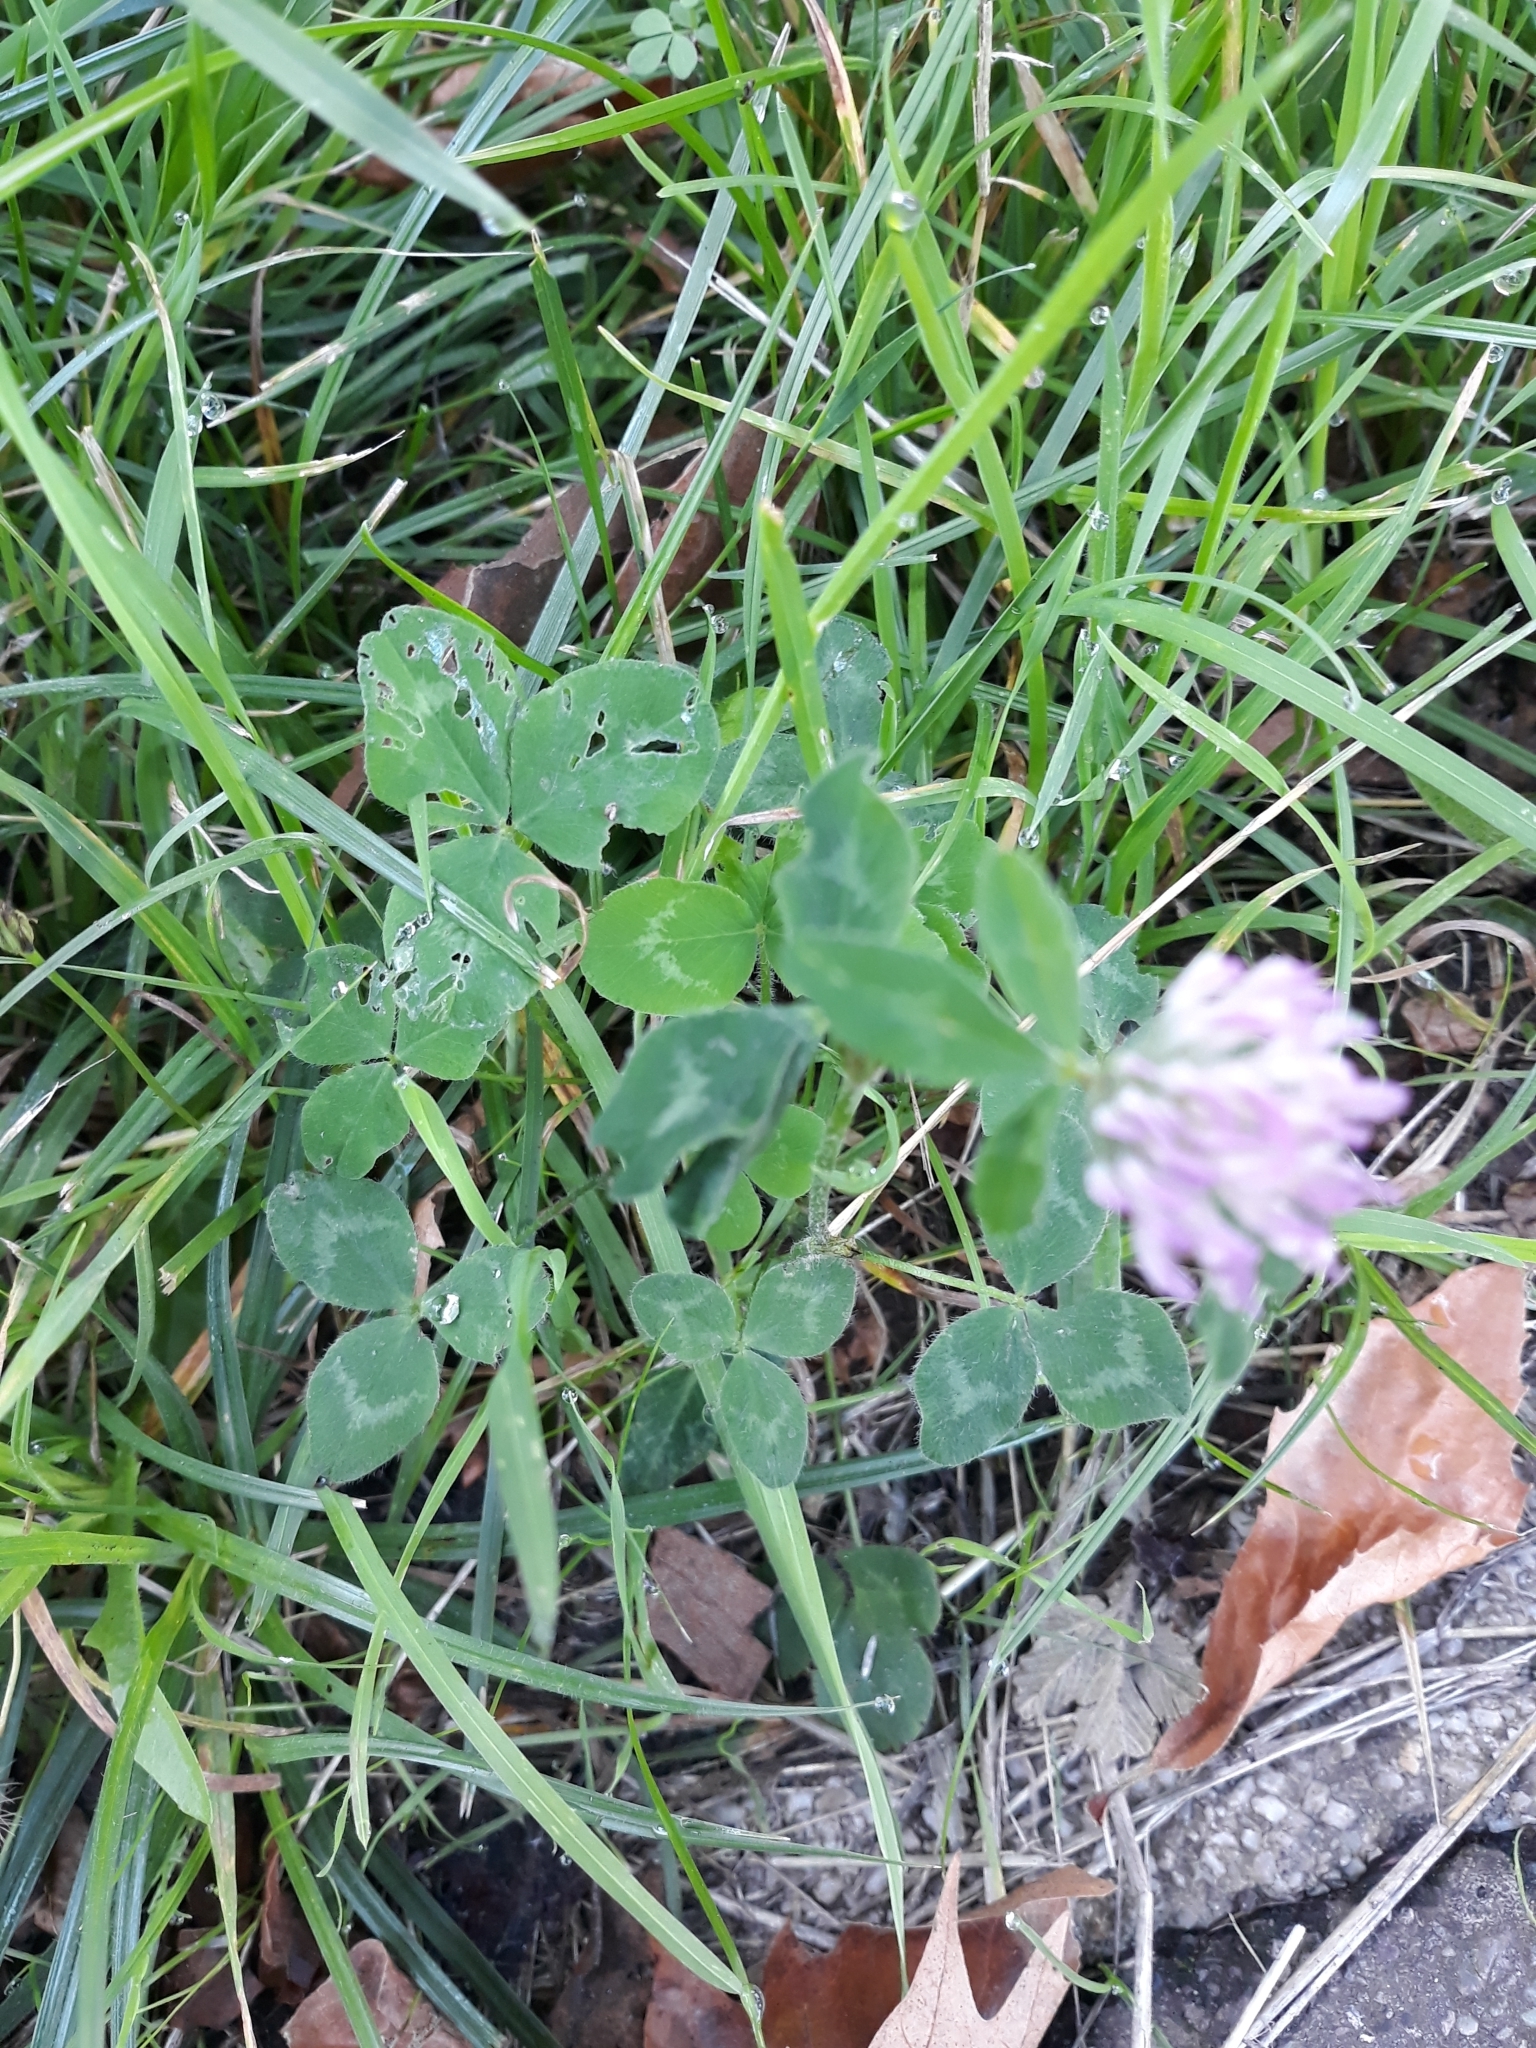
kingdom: Plantae
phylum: Tracheophyta
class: Magnoliopsida
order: Fabales
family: Fabaceae
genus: Trifolium
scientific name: Trifolium pratense
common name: Red clover
